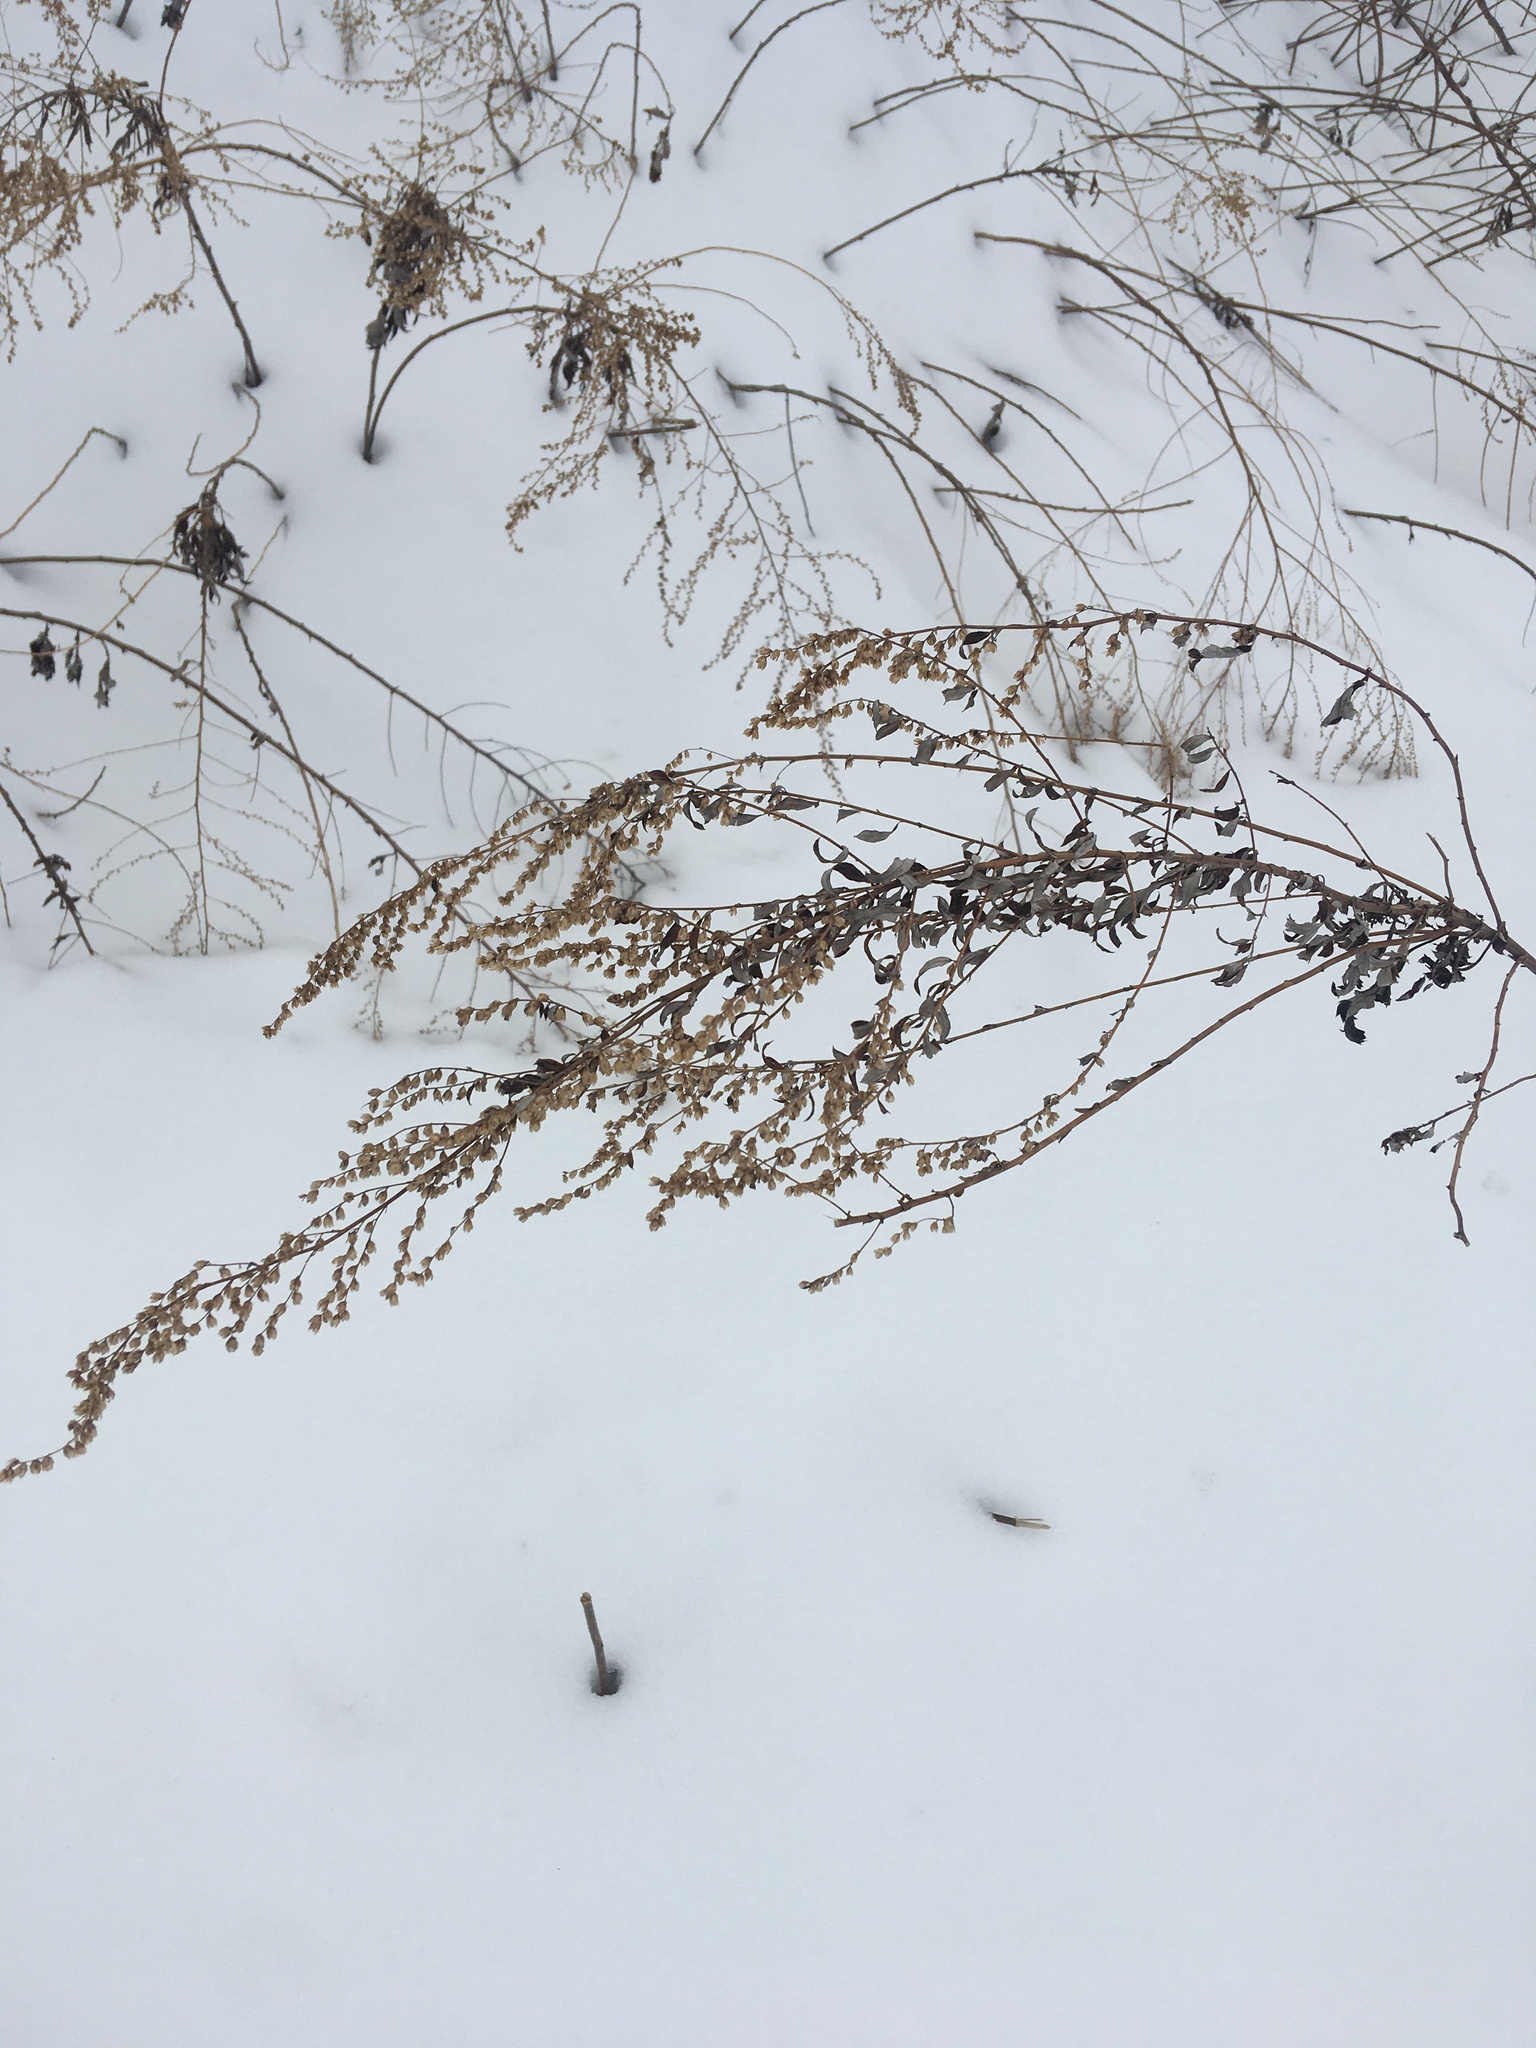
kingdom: Plantae
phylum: Tracheophyta
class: Magnoliopsida
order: Asterales
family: Asteraceae
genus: Artemisia
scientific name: Artemisia vulgaris
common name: Mugwort
